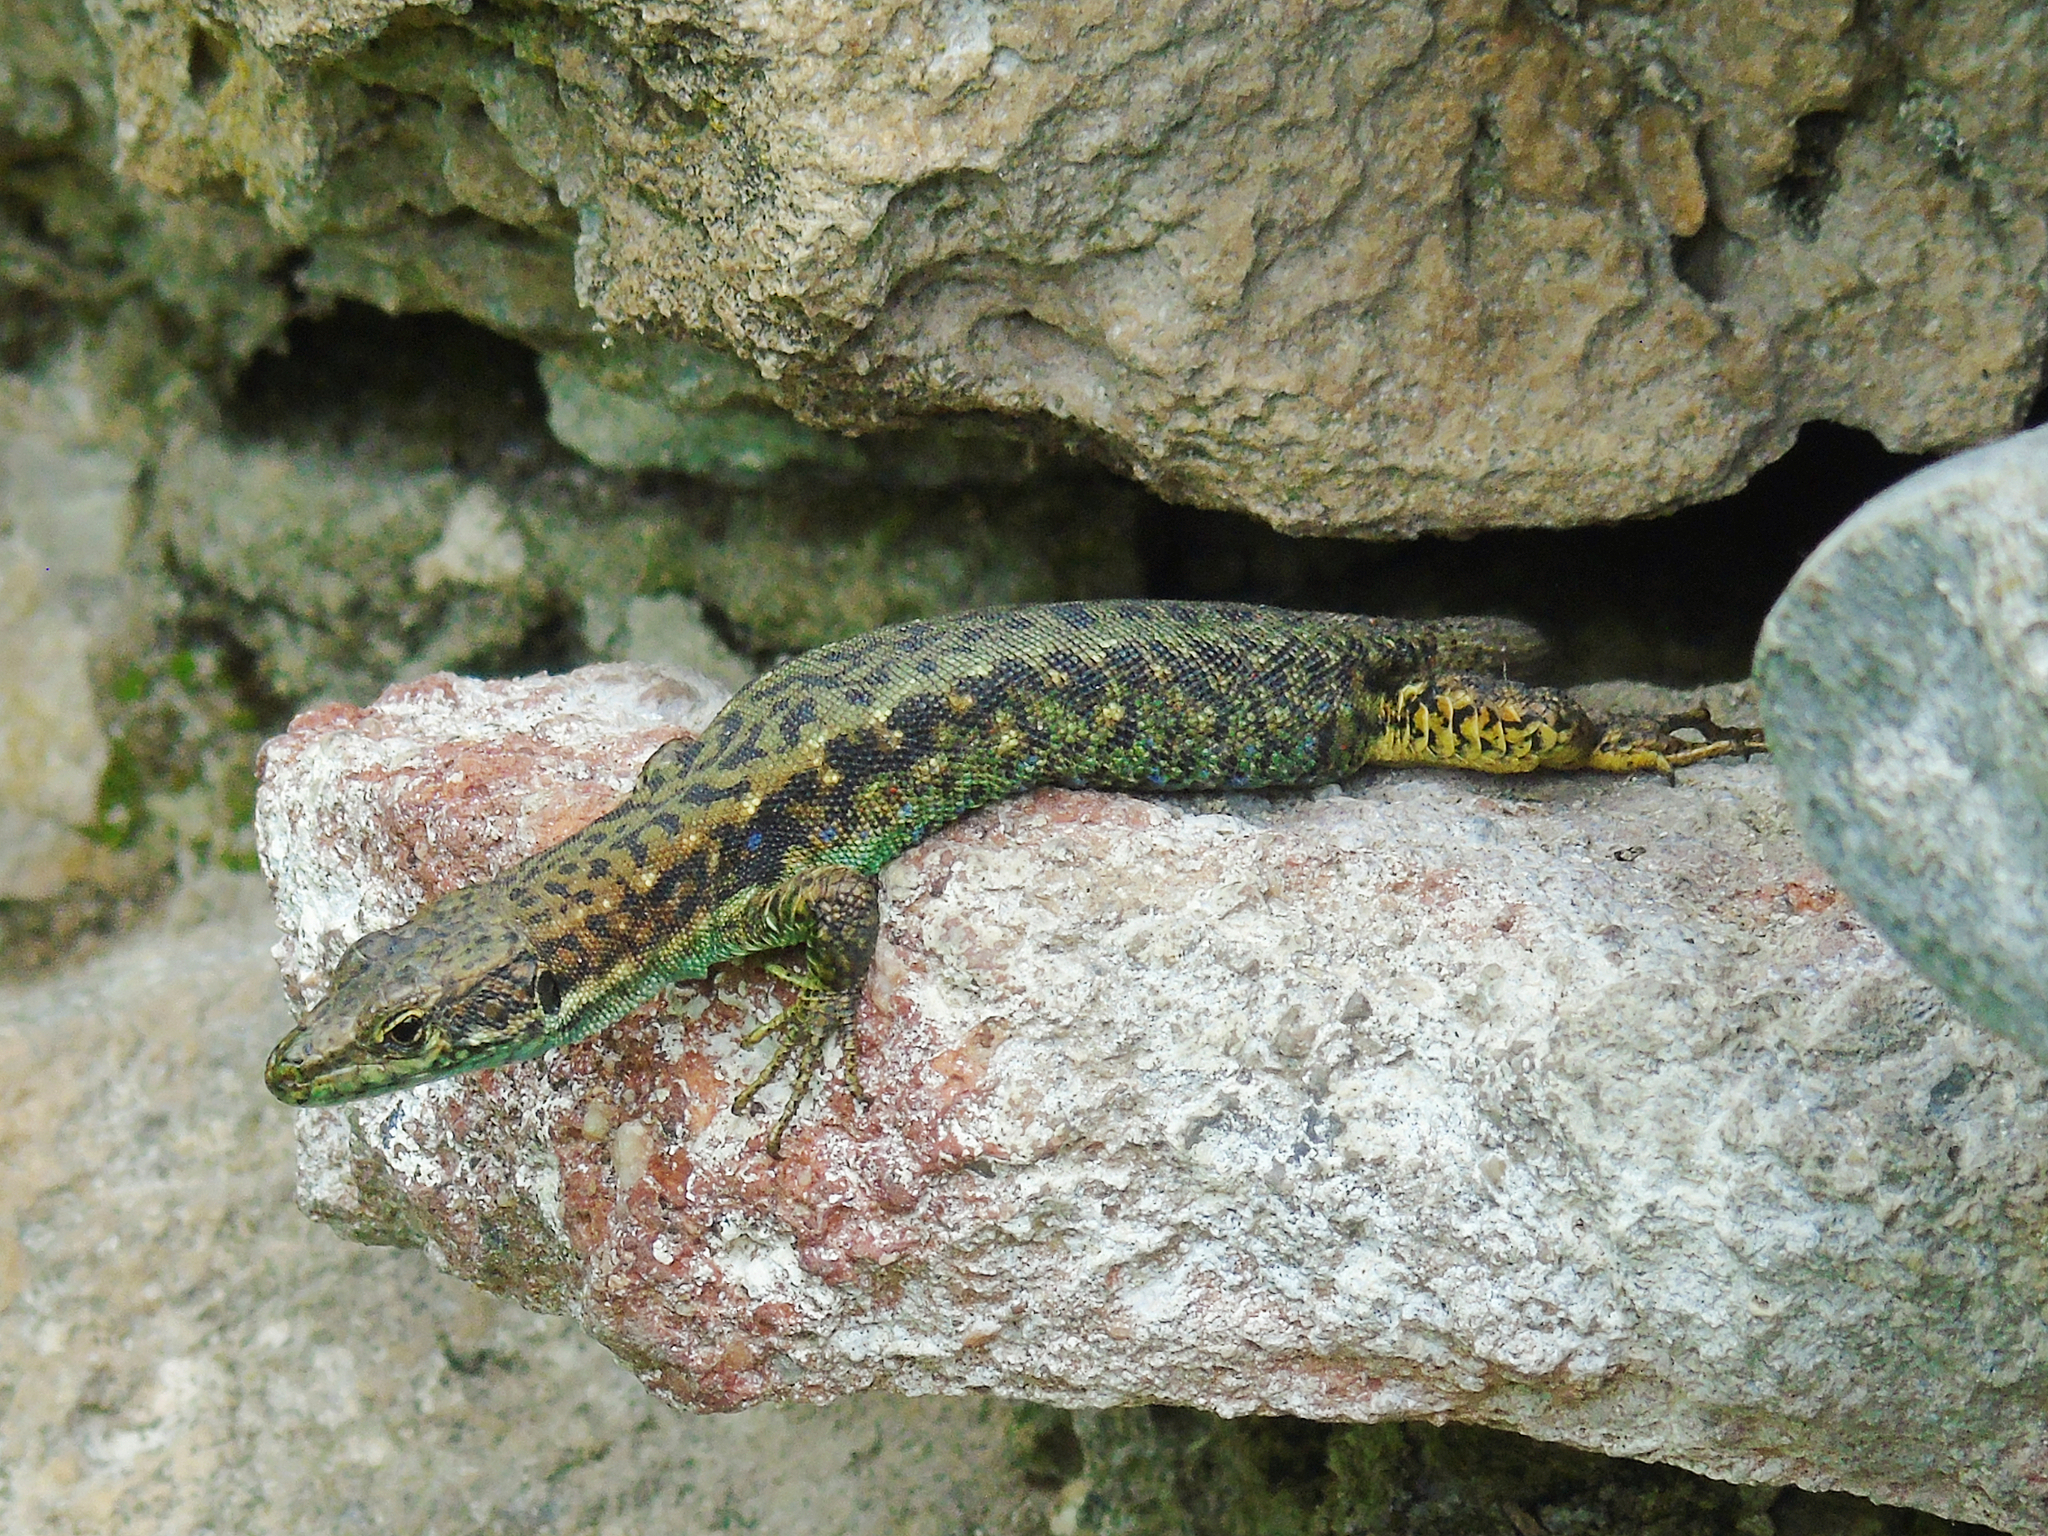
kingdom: Animalia
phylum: Chordata
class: Squamata
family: Lacertidae
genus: Darevskia
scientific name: Darevskia rudis
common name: Spiny-tailed lizard
